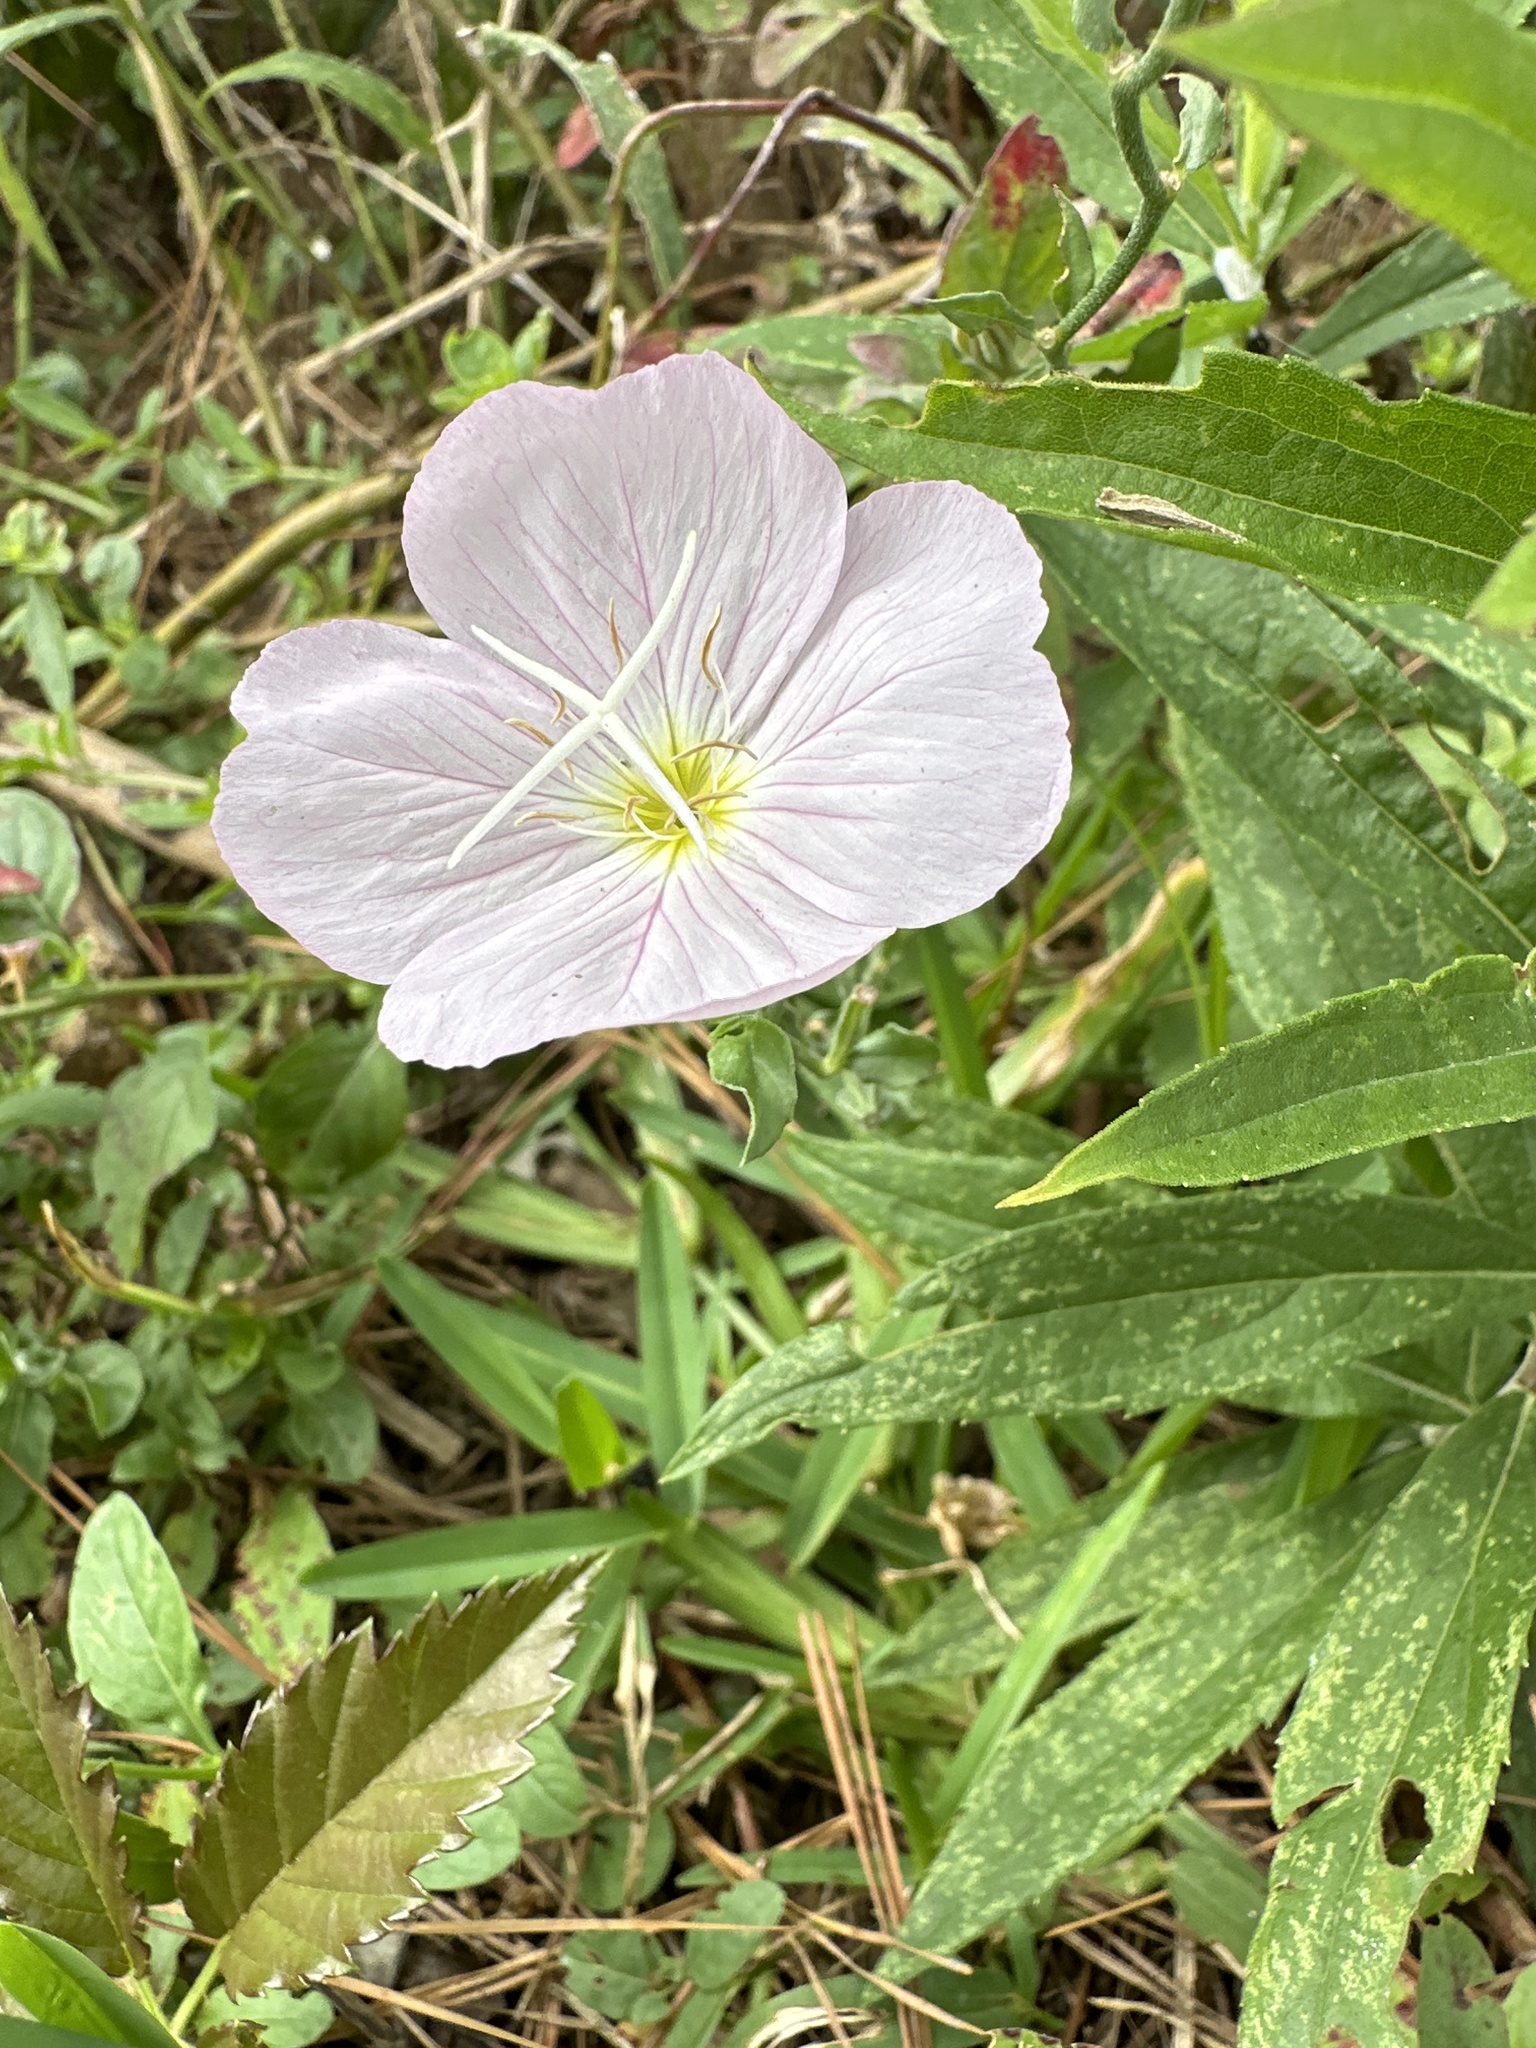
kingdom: Plantae
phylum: Tracheophyta
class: Magnoliopsida
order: Myrtales
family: Onagraceae
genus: Oenothera
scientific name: Oenothera speciosa
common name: White evening-primrose
